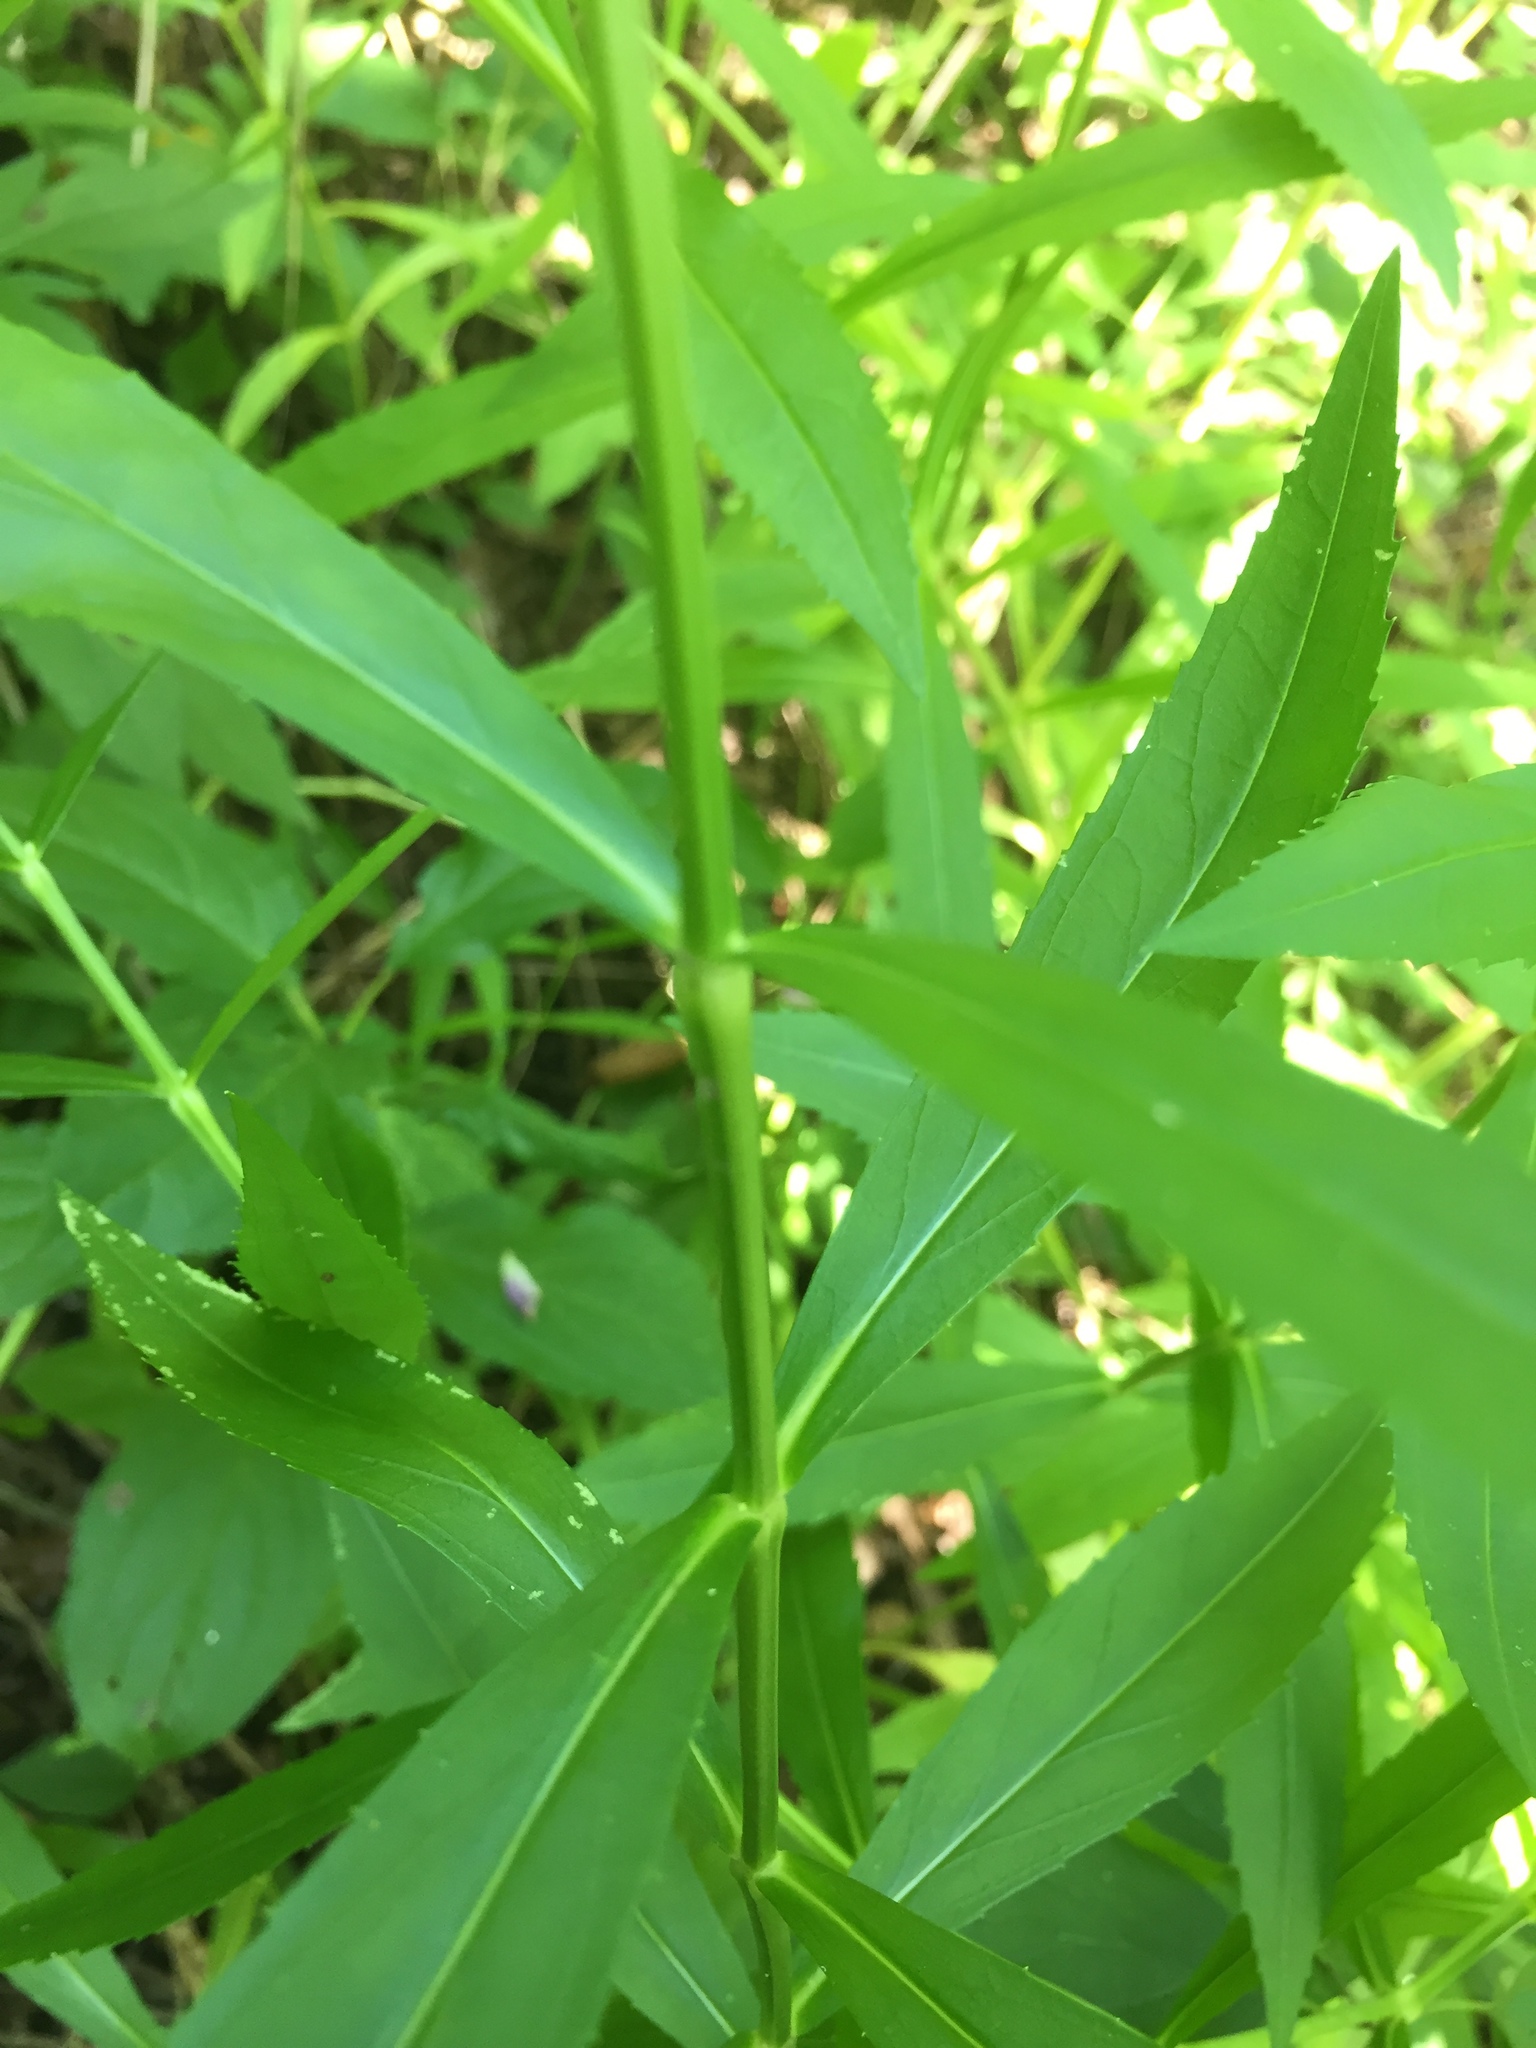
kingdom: Plantae
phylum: Tracheophyta
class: Magnoliopsida
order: Lamiales
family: Lamiaceae
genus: Physostegia
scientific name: Physostegia virginiana
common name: Obedient-plant
